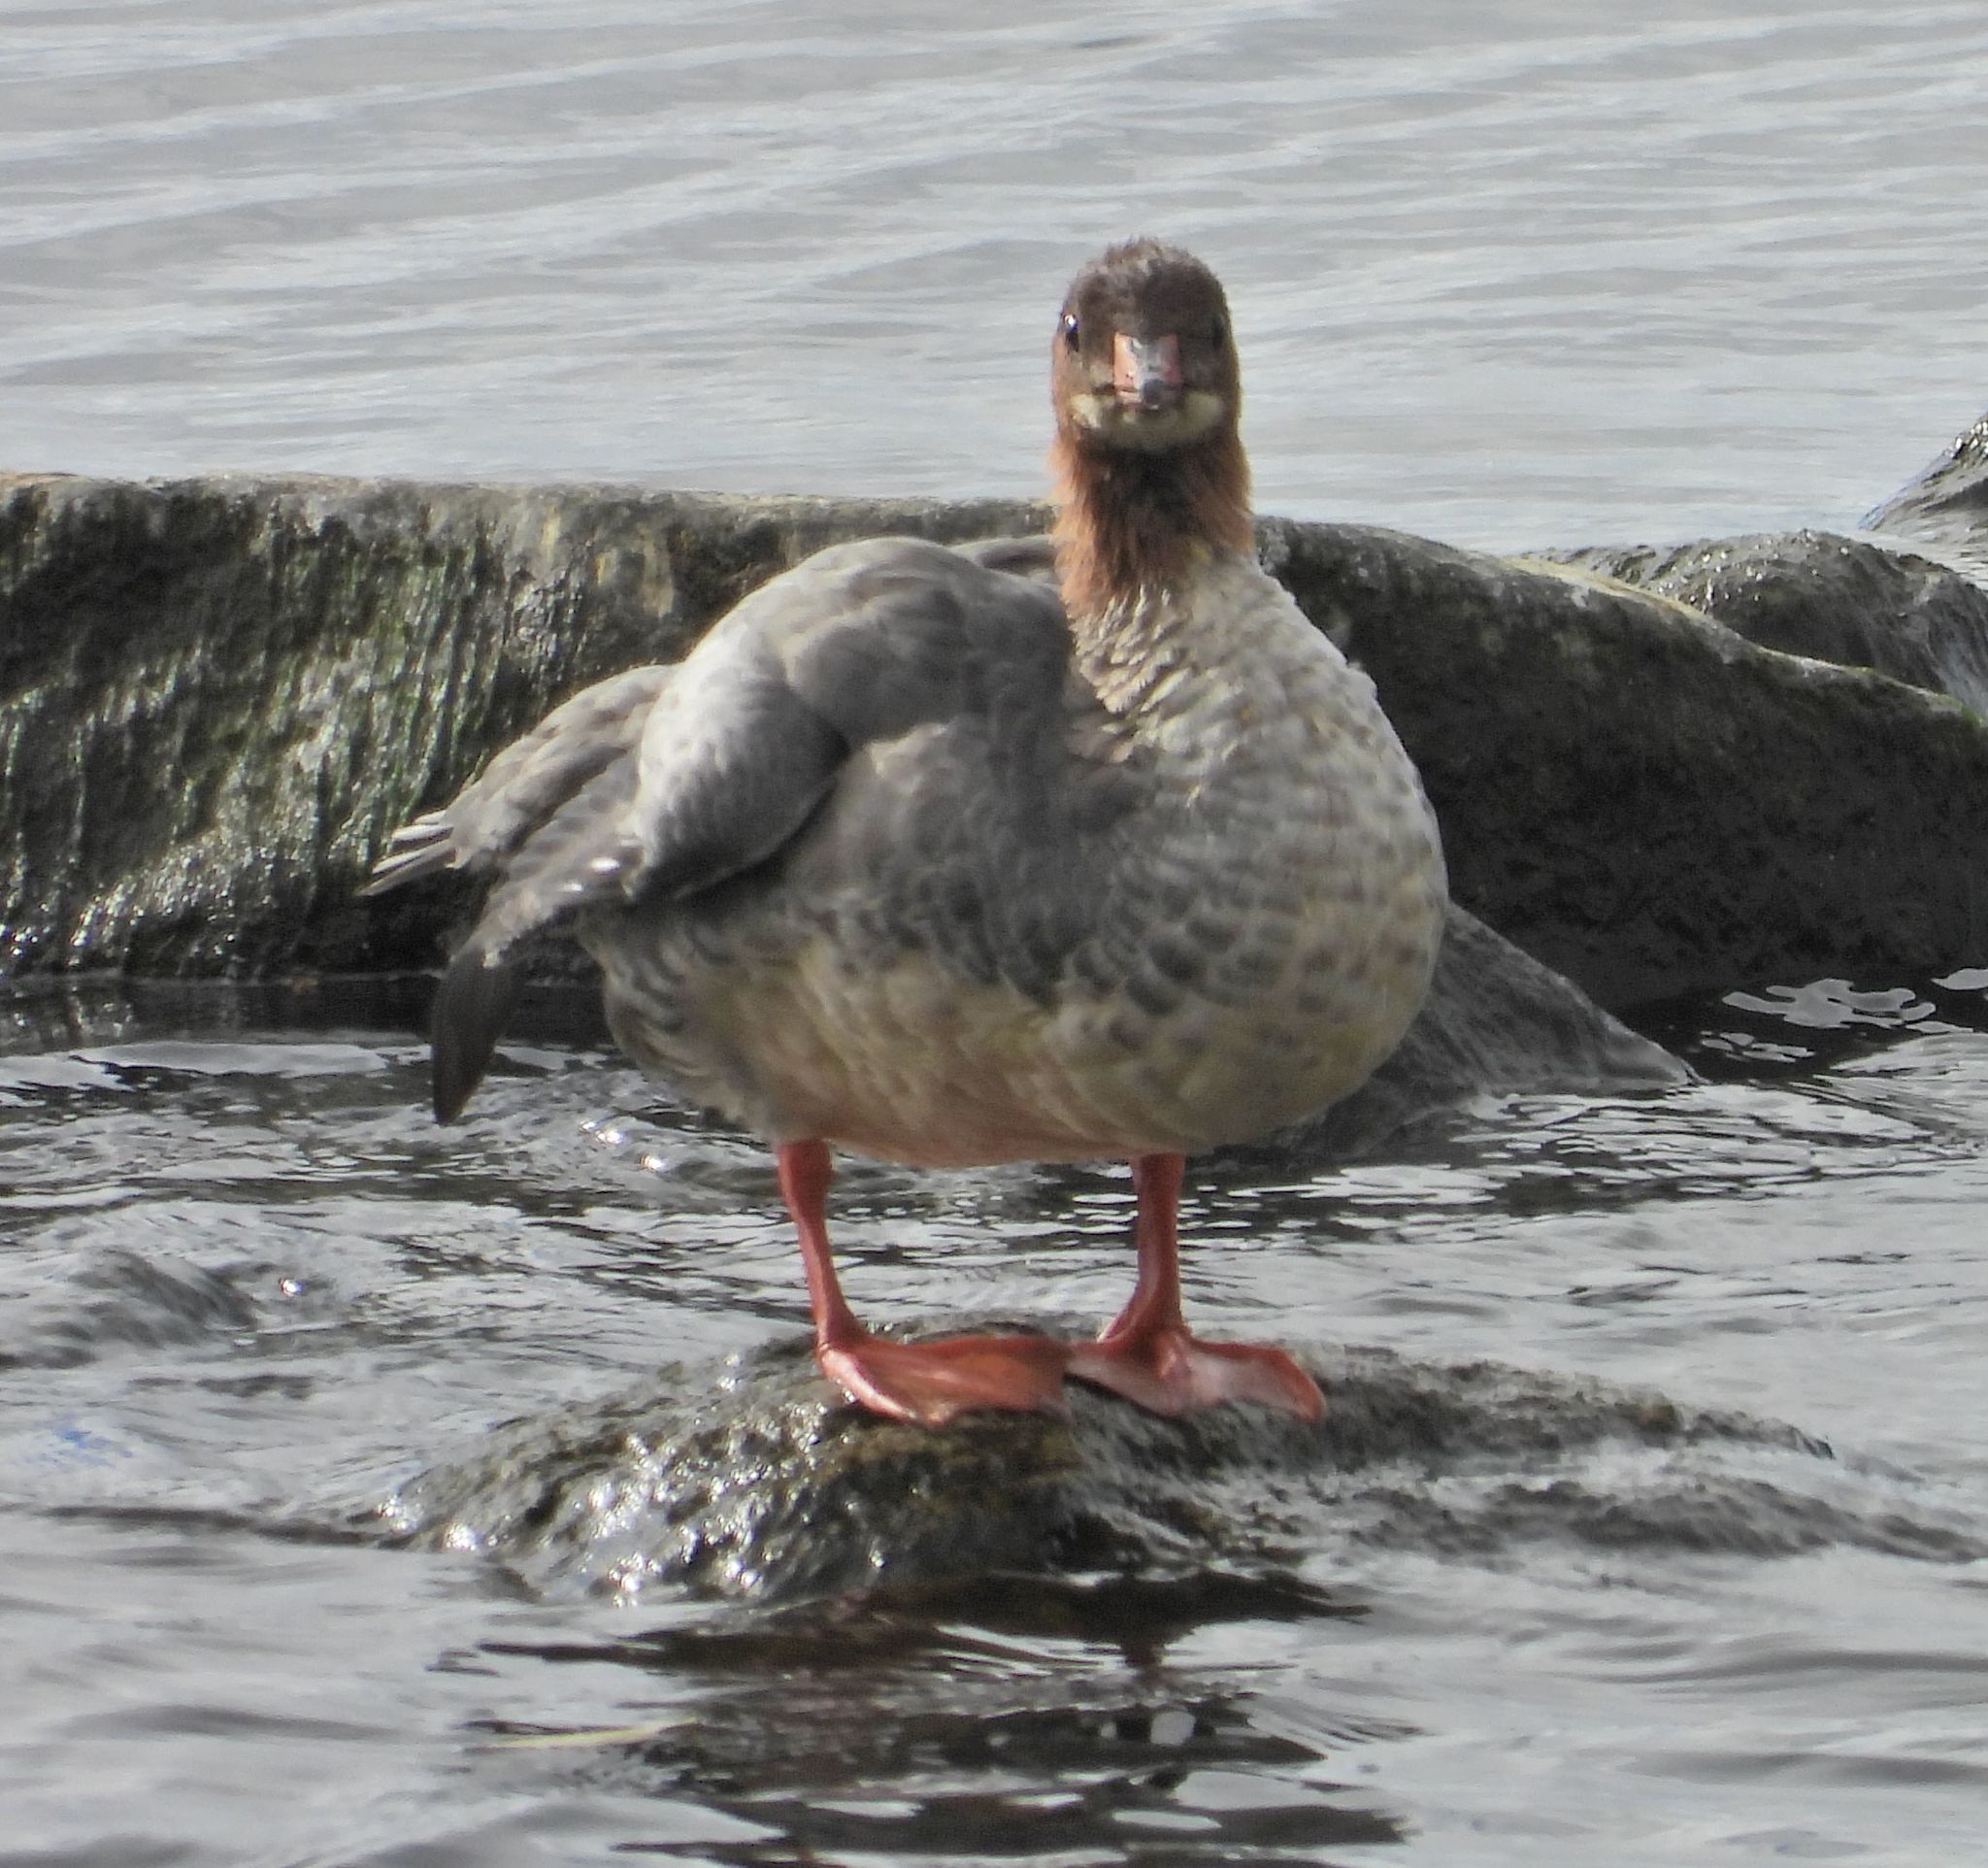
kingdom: Animalia
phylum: Chordata
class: Aves
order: Anseriformes
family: Anatidae
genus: Mergus
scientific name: Mergus merganser
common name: Common merganser
